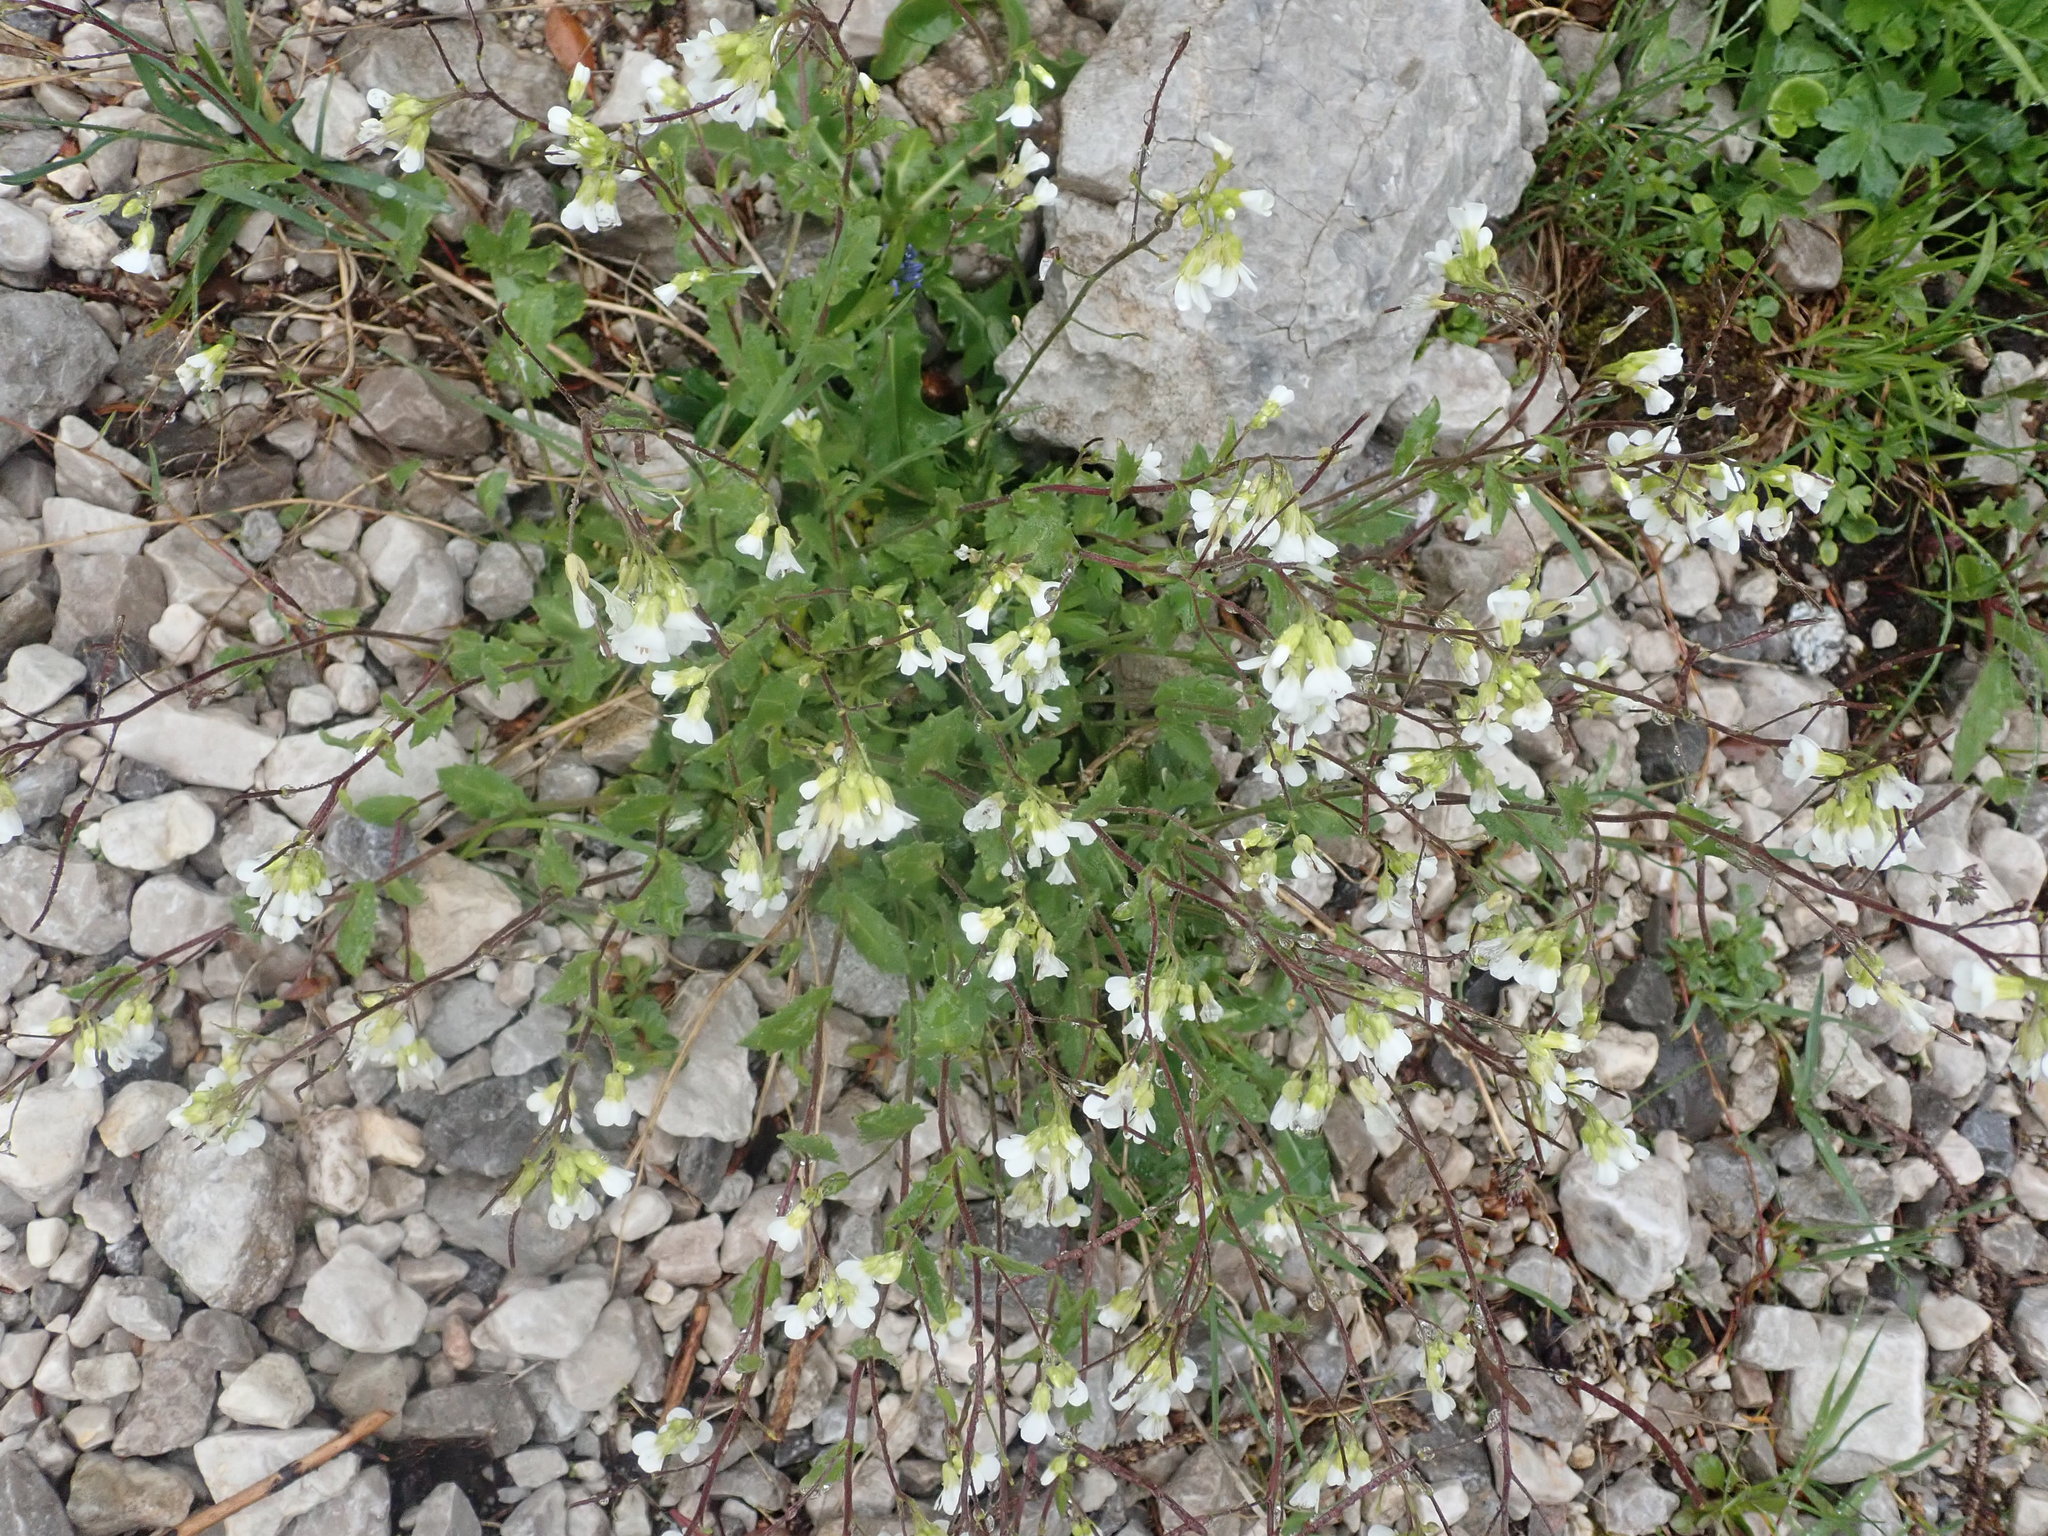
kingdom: Plantae
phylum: Tracheophyta
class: Magnoliopsida
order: Brassicales
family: Brassicaceae
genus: Arabis
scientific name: Arabis alpina
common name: Alpine rock-cress
